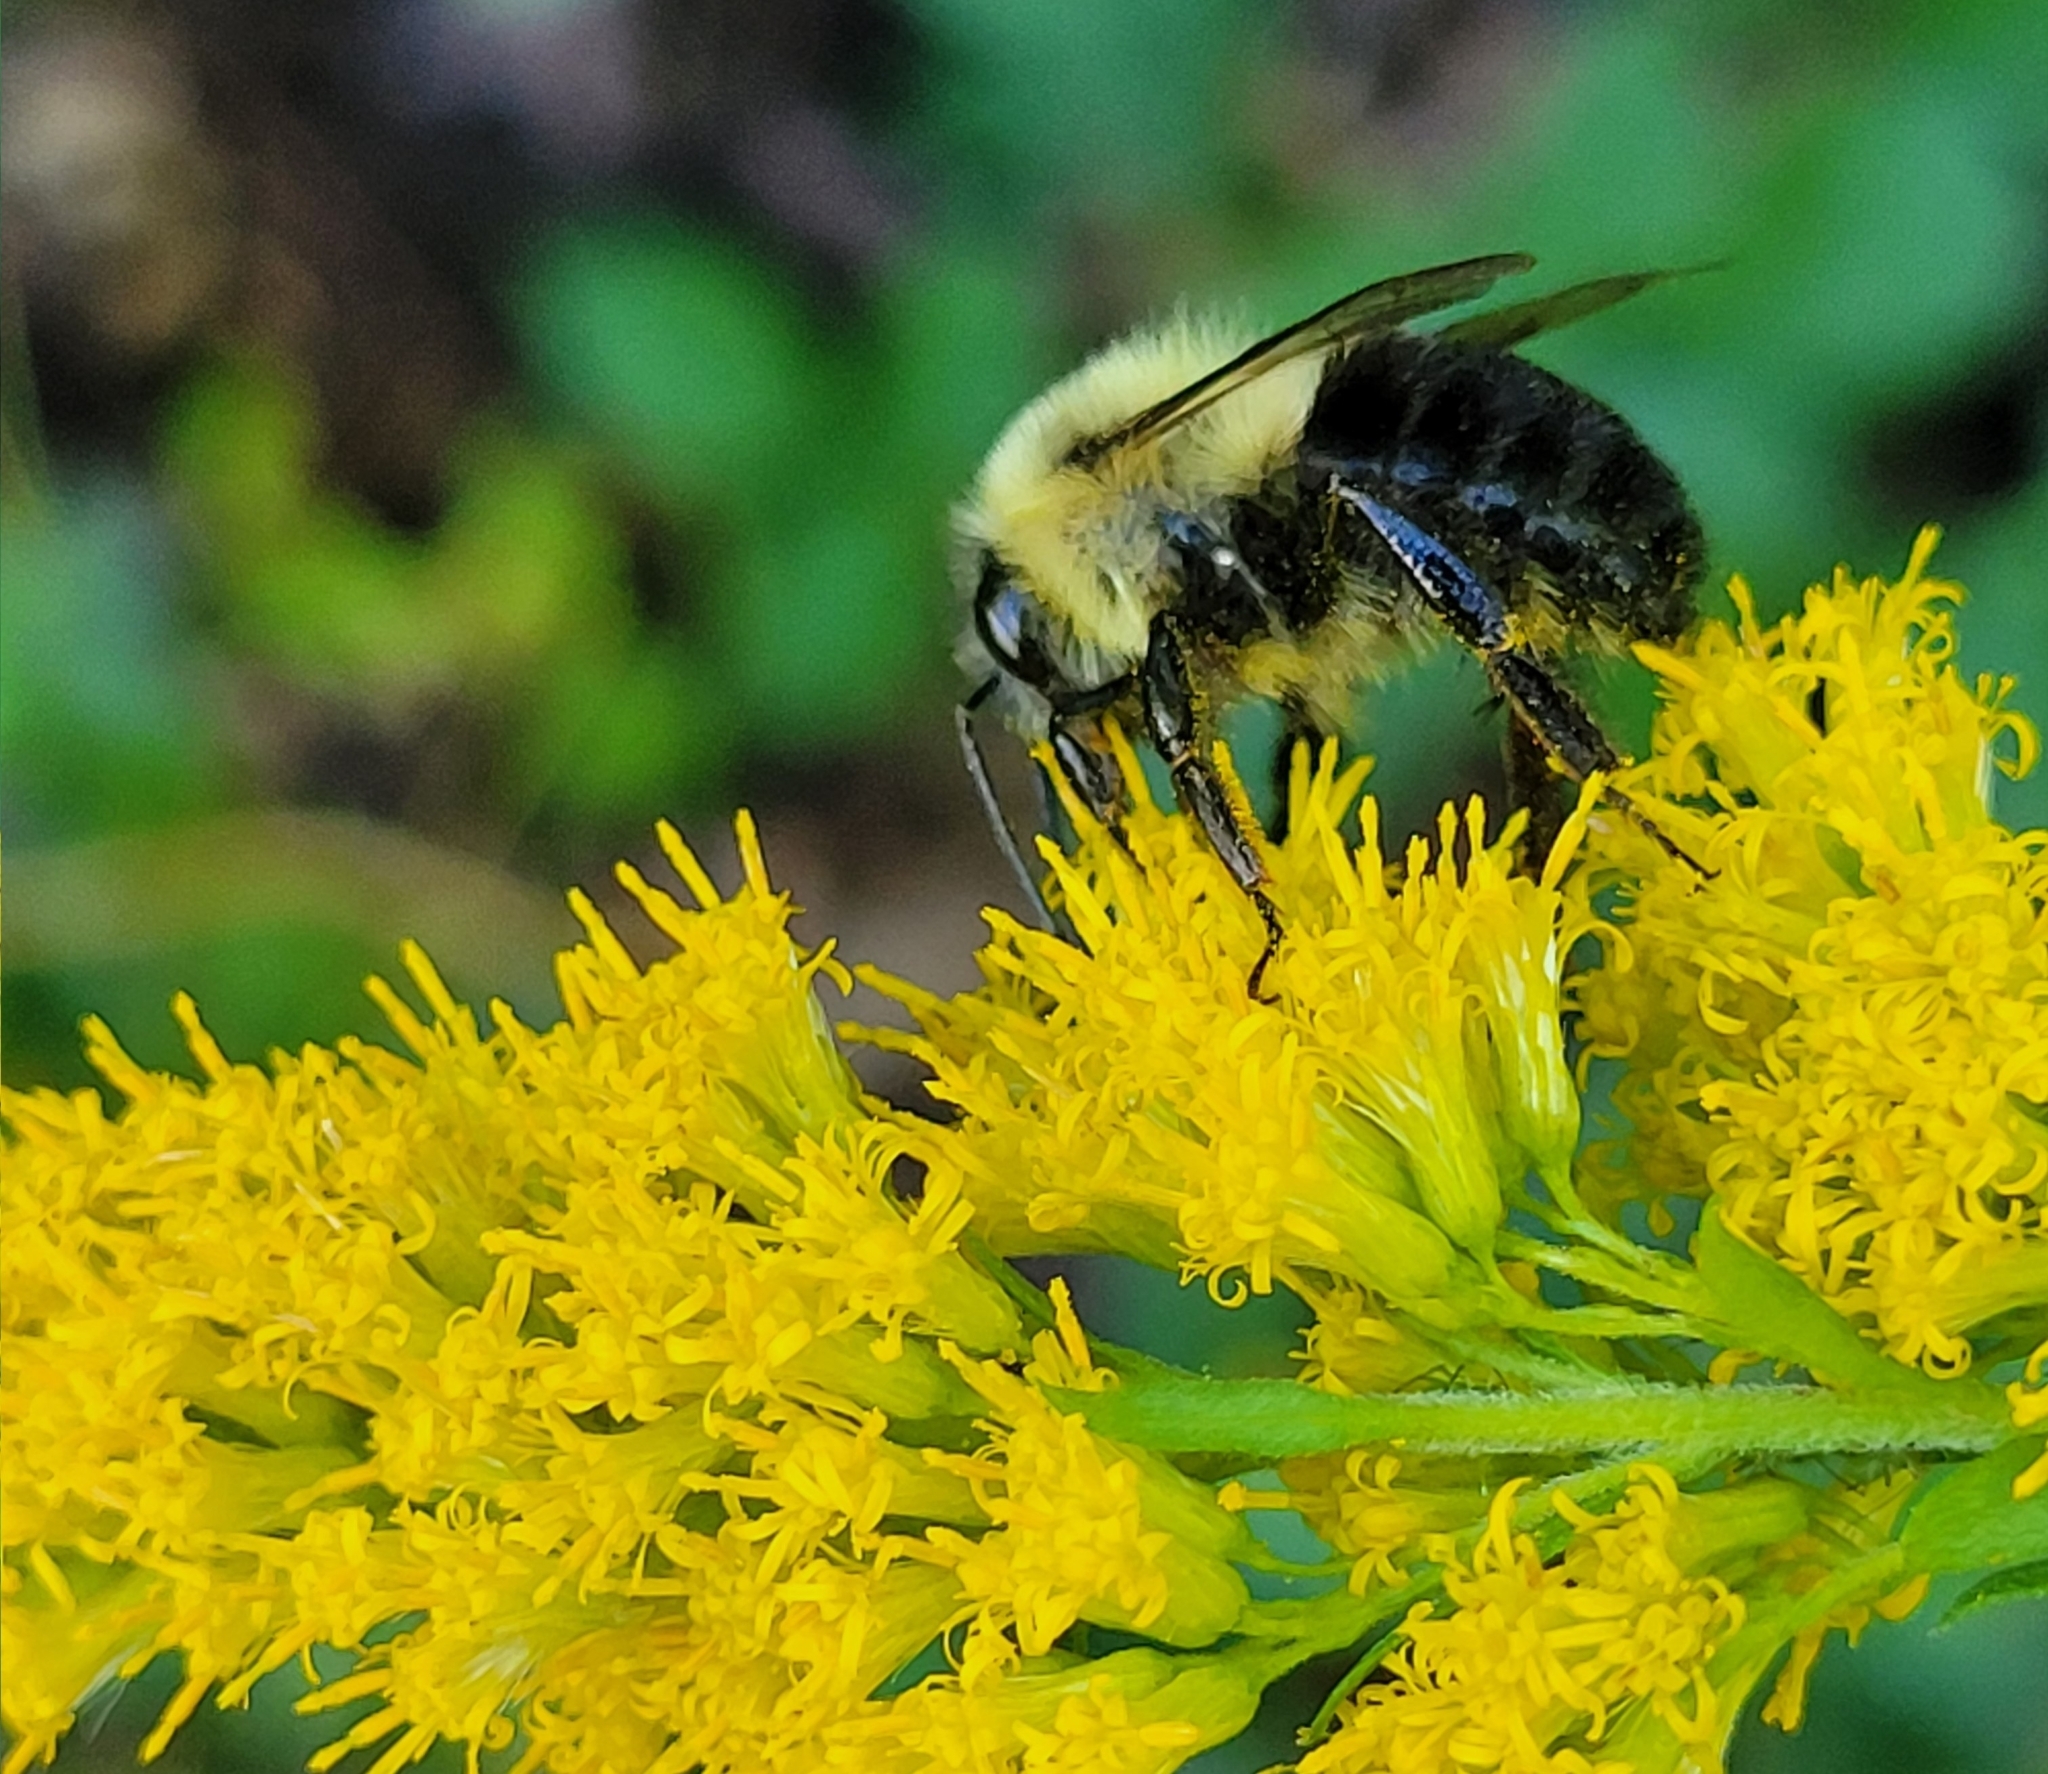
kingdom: Animalia
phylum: Arthropoda
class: Insecta
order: Hymenoptera
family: Apidae
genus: Bombus
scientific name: Bombus impatiens
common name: Common eastern bumble bee
